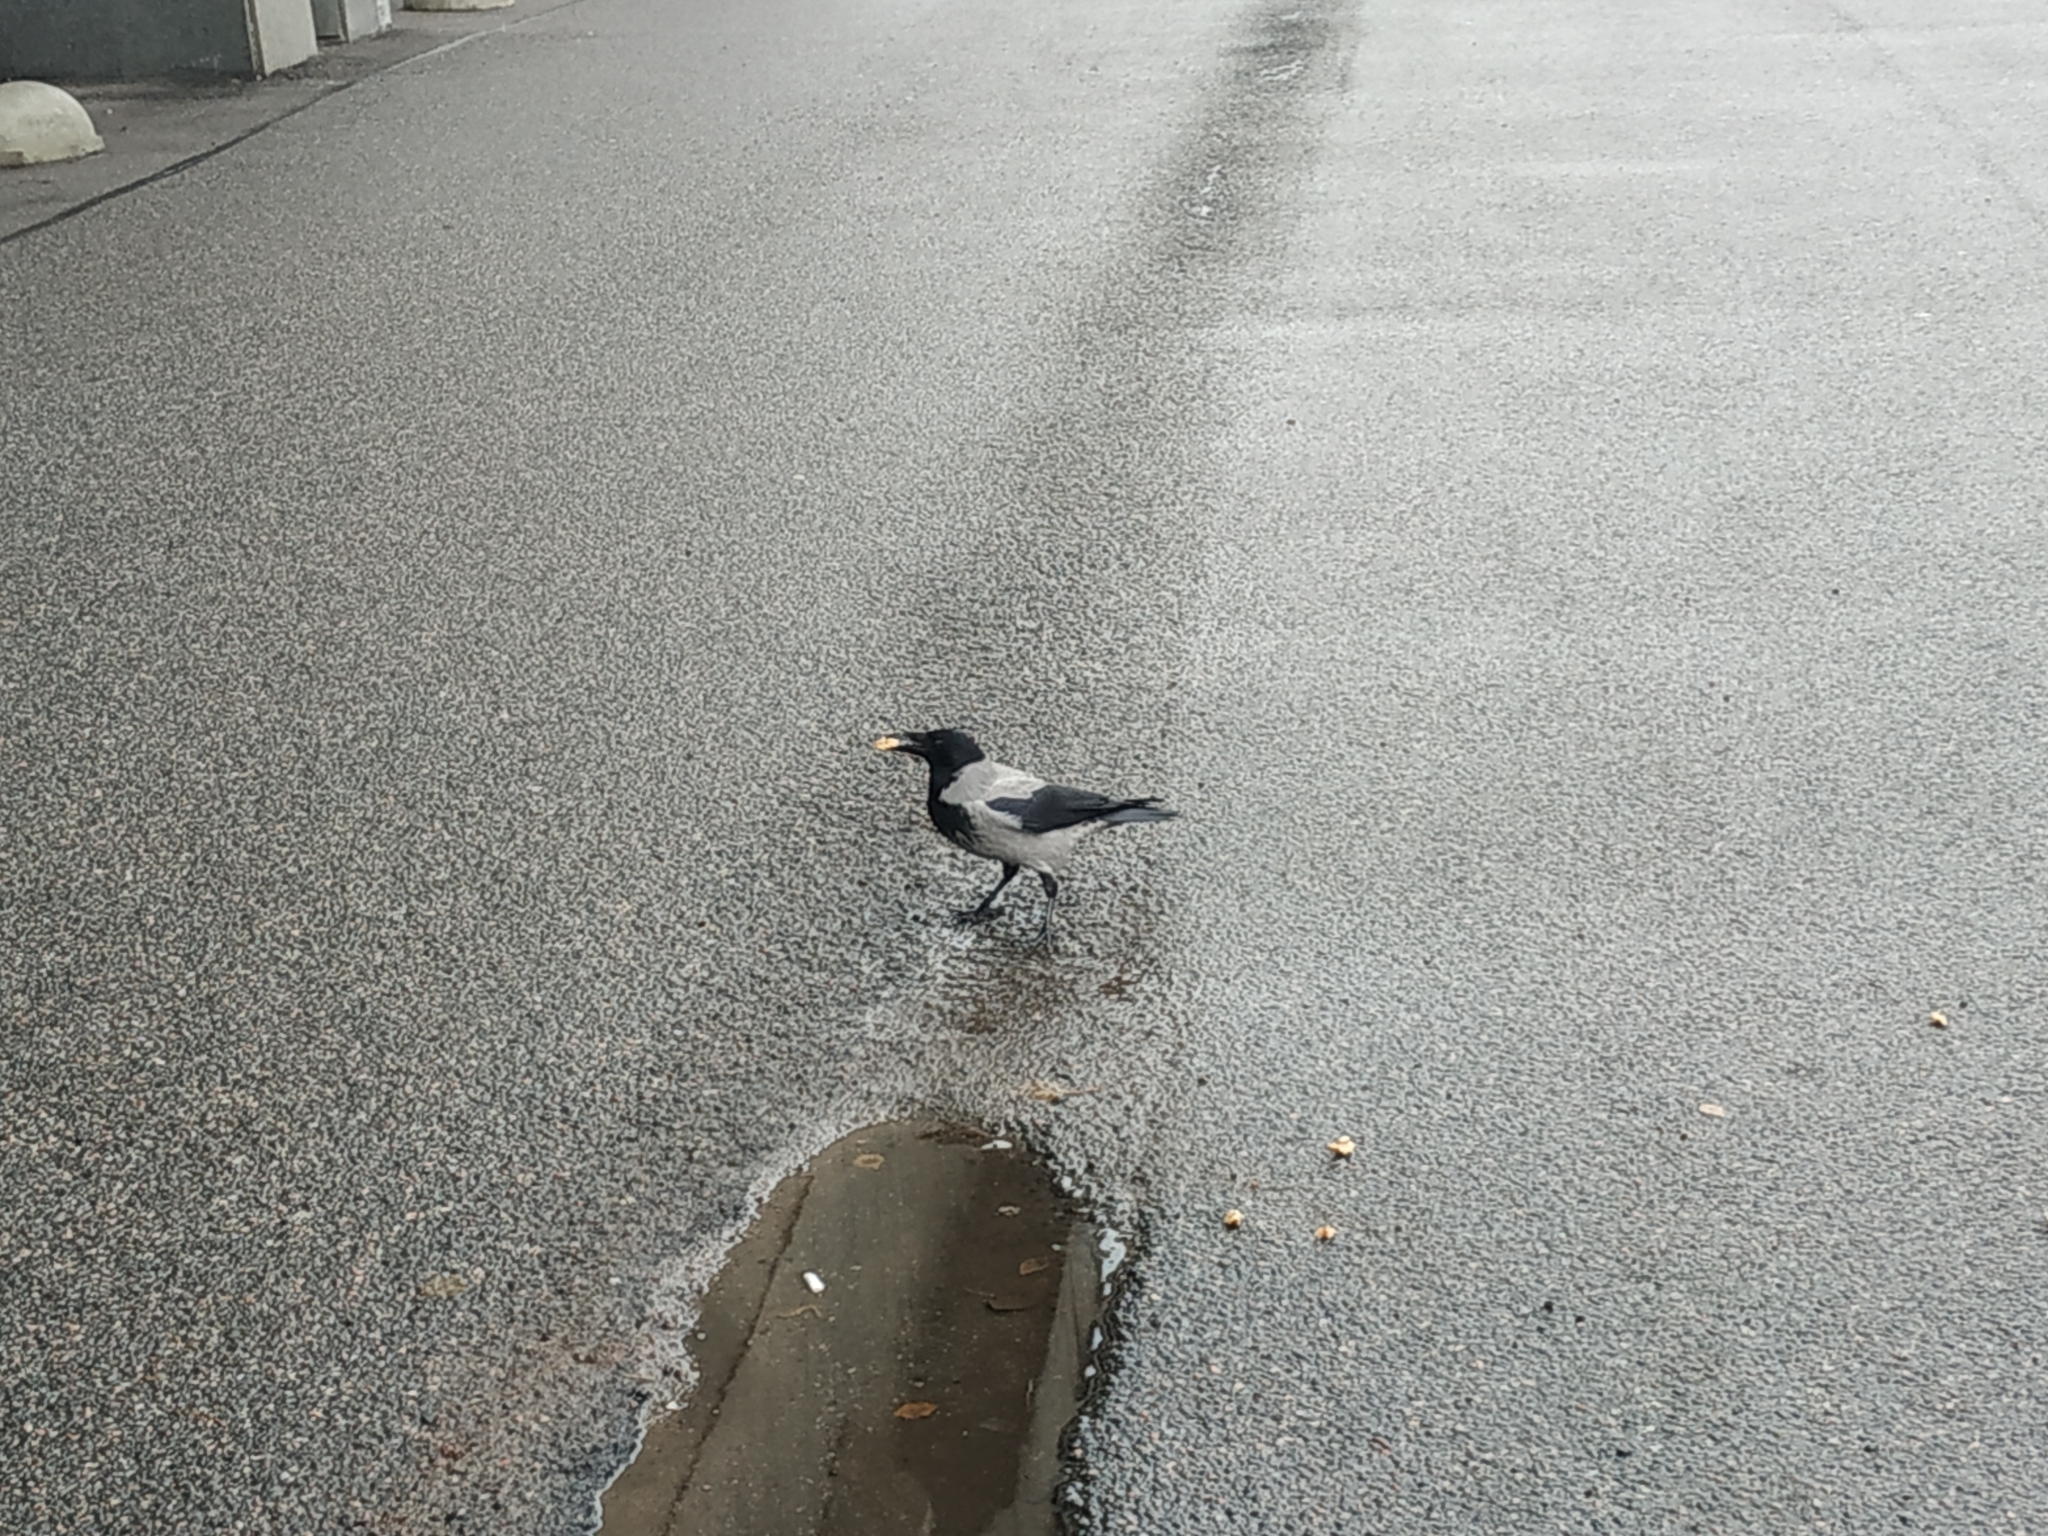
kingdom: Animalia
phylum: Chordata
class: Aves
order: Passeriformes
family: Corvidae
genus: Corvus
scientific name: Corvus cornix
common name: Hooded crow
